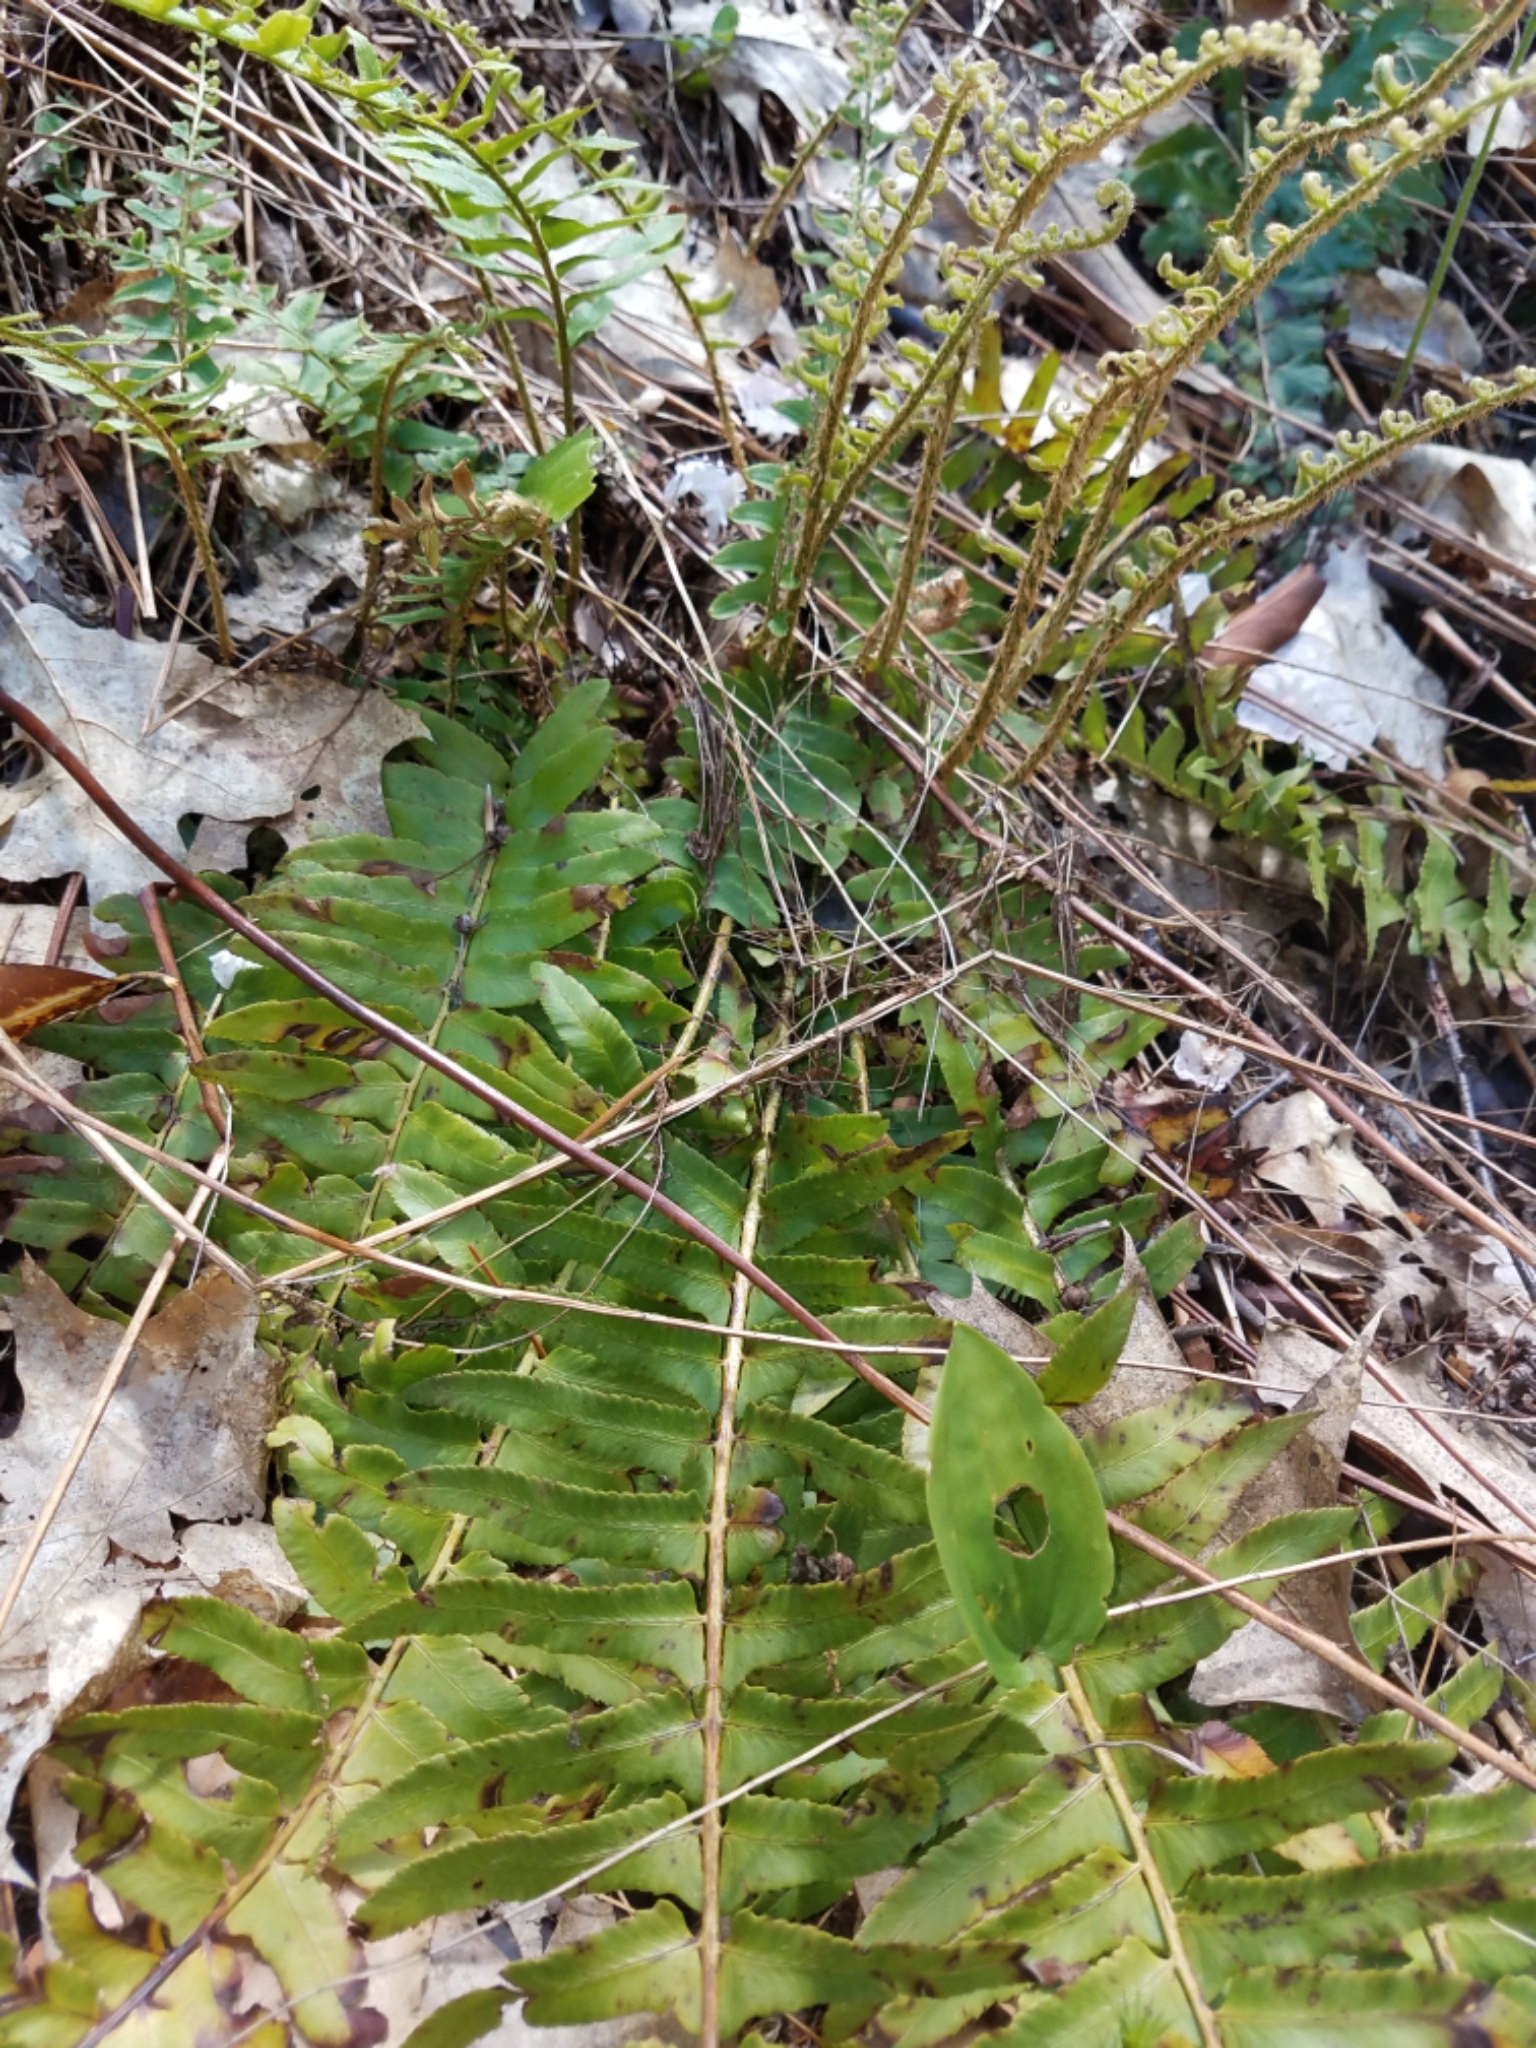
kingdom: Plantae
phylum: Tracheophyta
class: Polypodiopsida
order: Polypodiales
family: Dryopteridaceae
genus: Polystichum
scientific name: Polystichum acrostichoides
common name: Christmas fern
